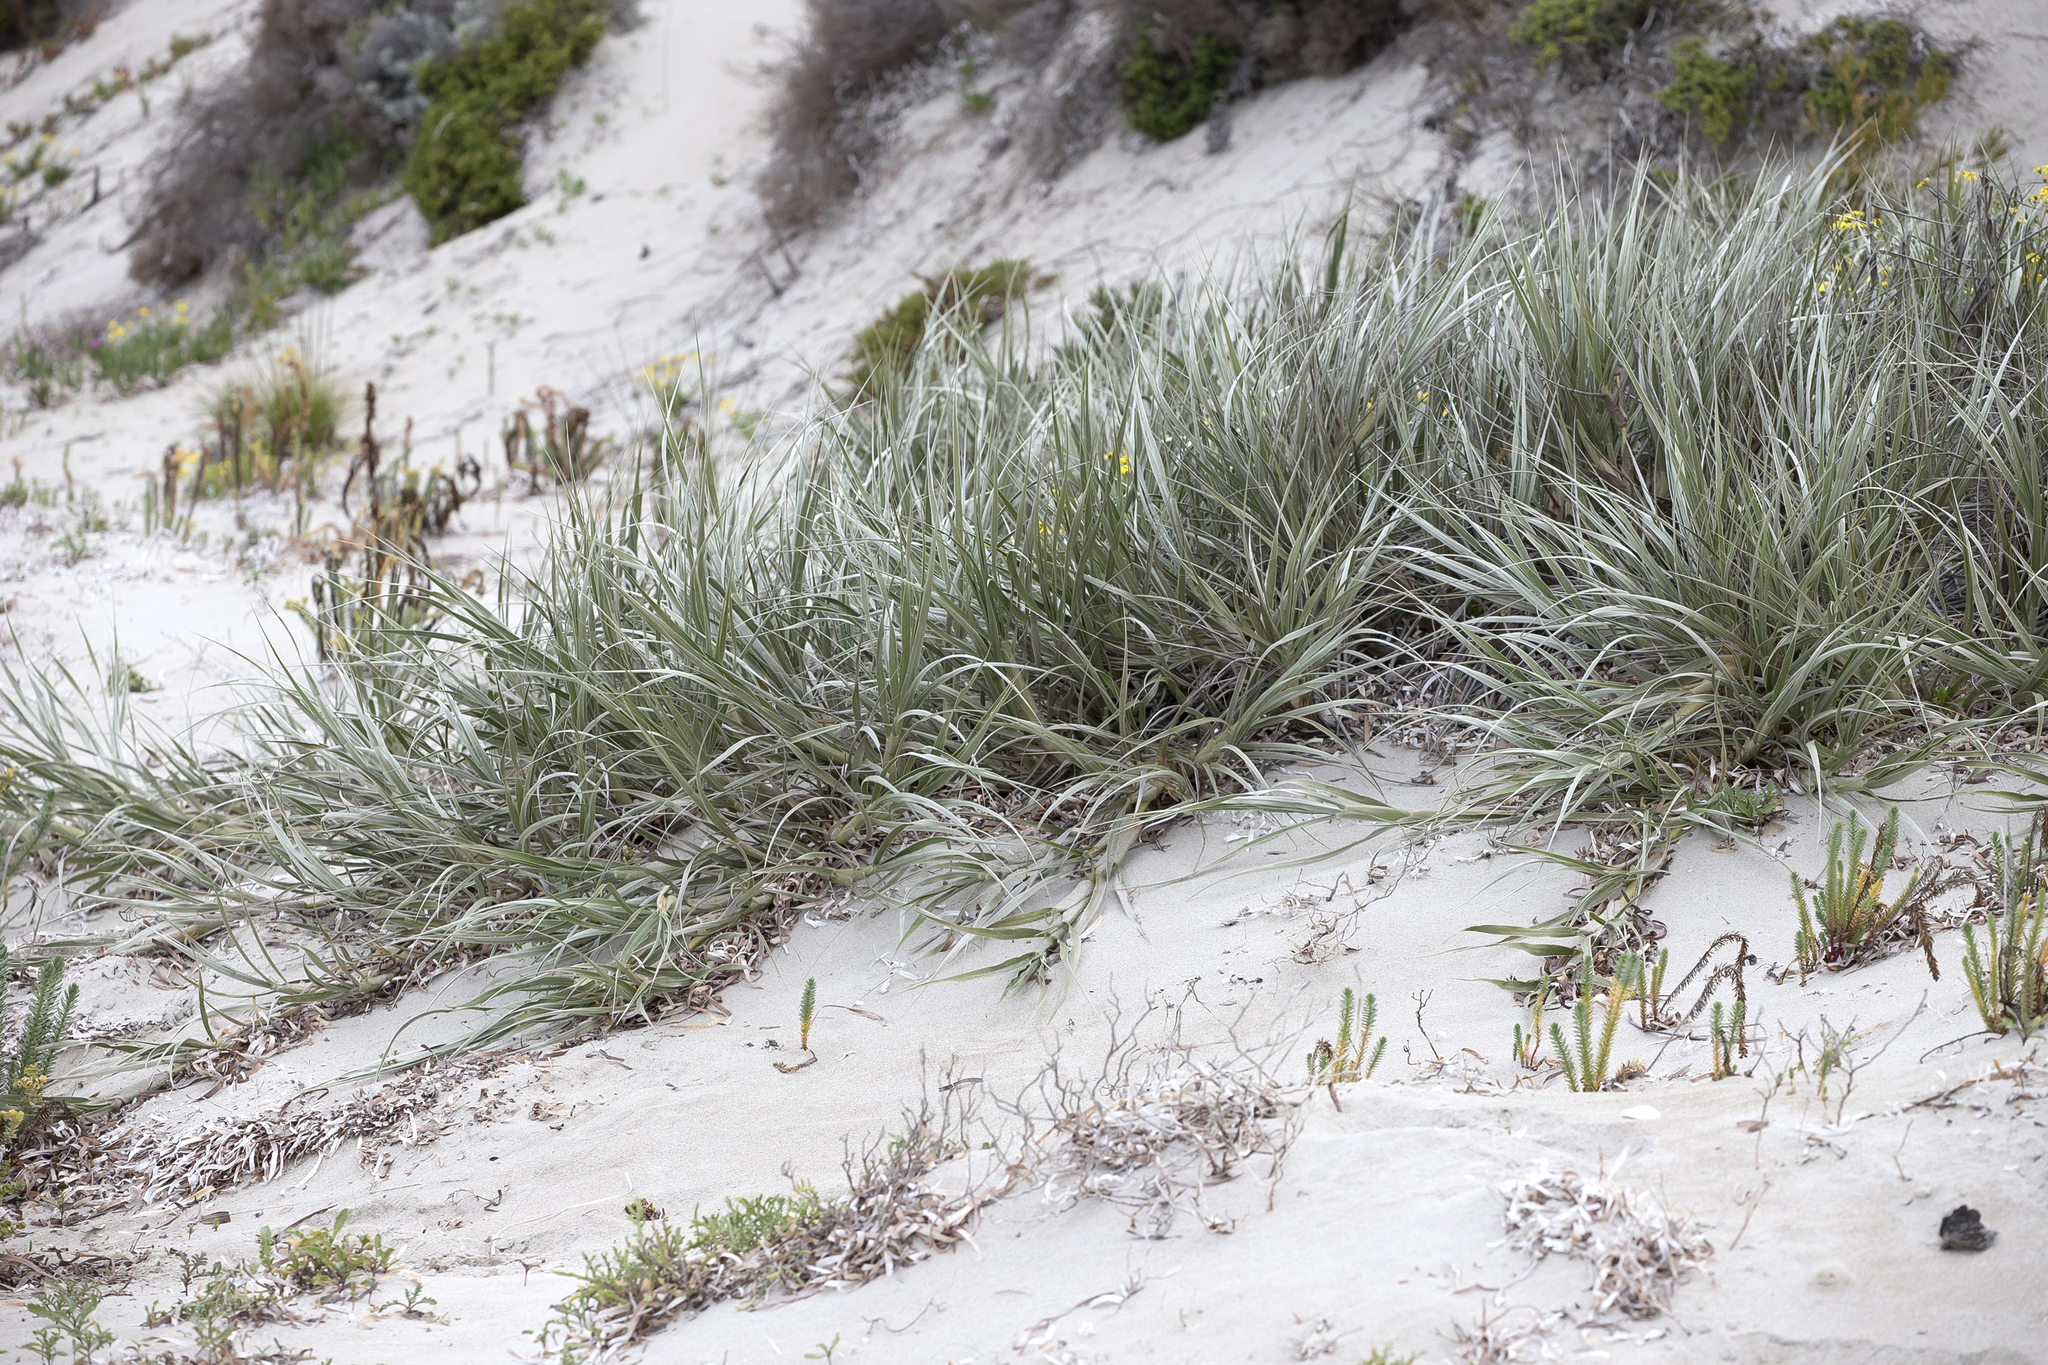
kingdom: Plantae
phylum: Tracheophyta
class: Liliopsida
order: Poales
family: Poaceae
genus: Spinifex
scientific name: Spinifex hirsutus
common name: Hairy spinifex
